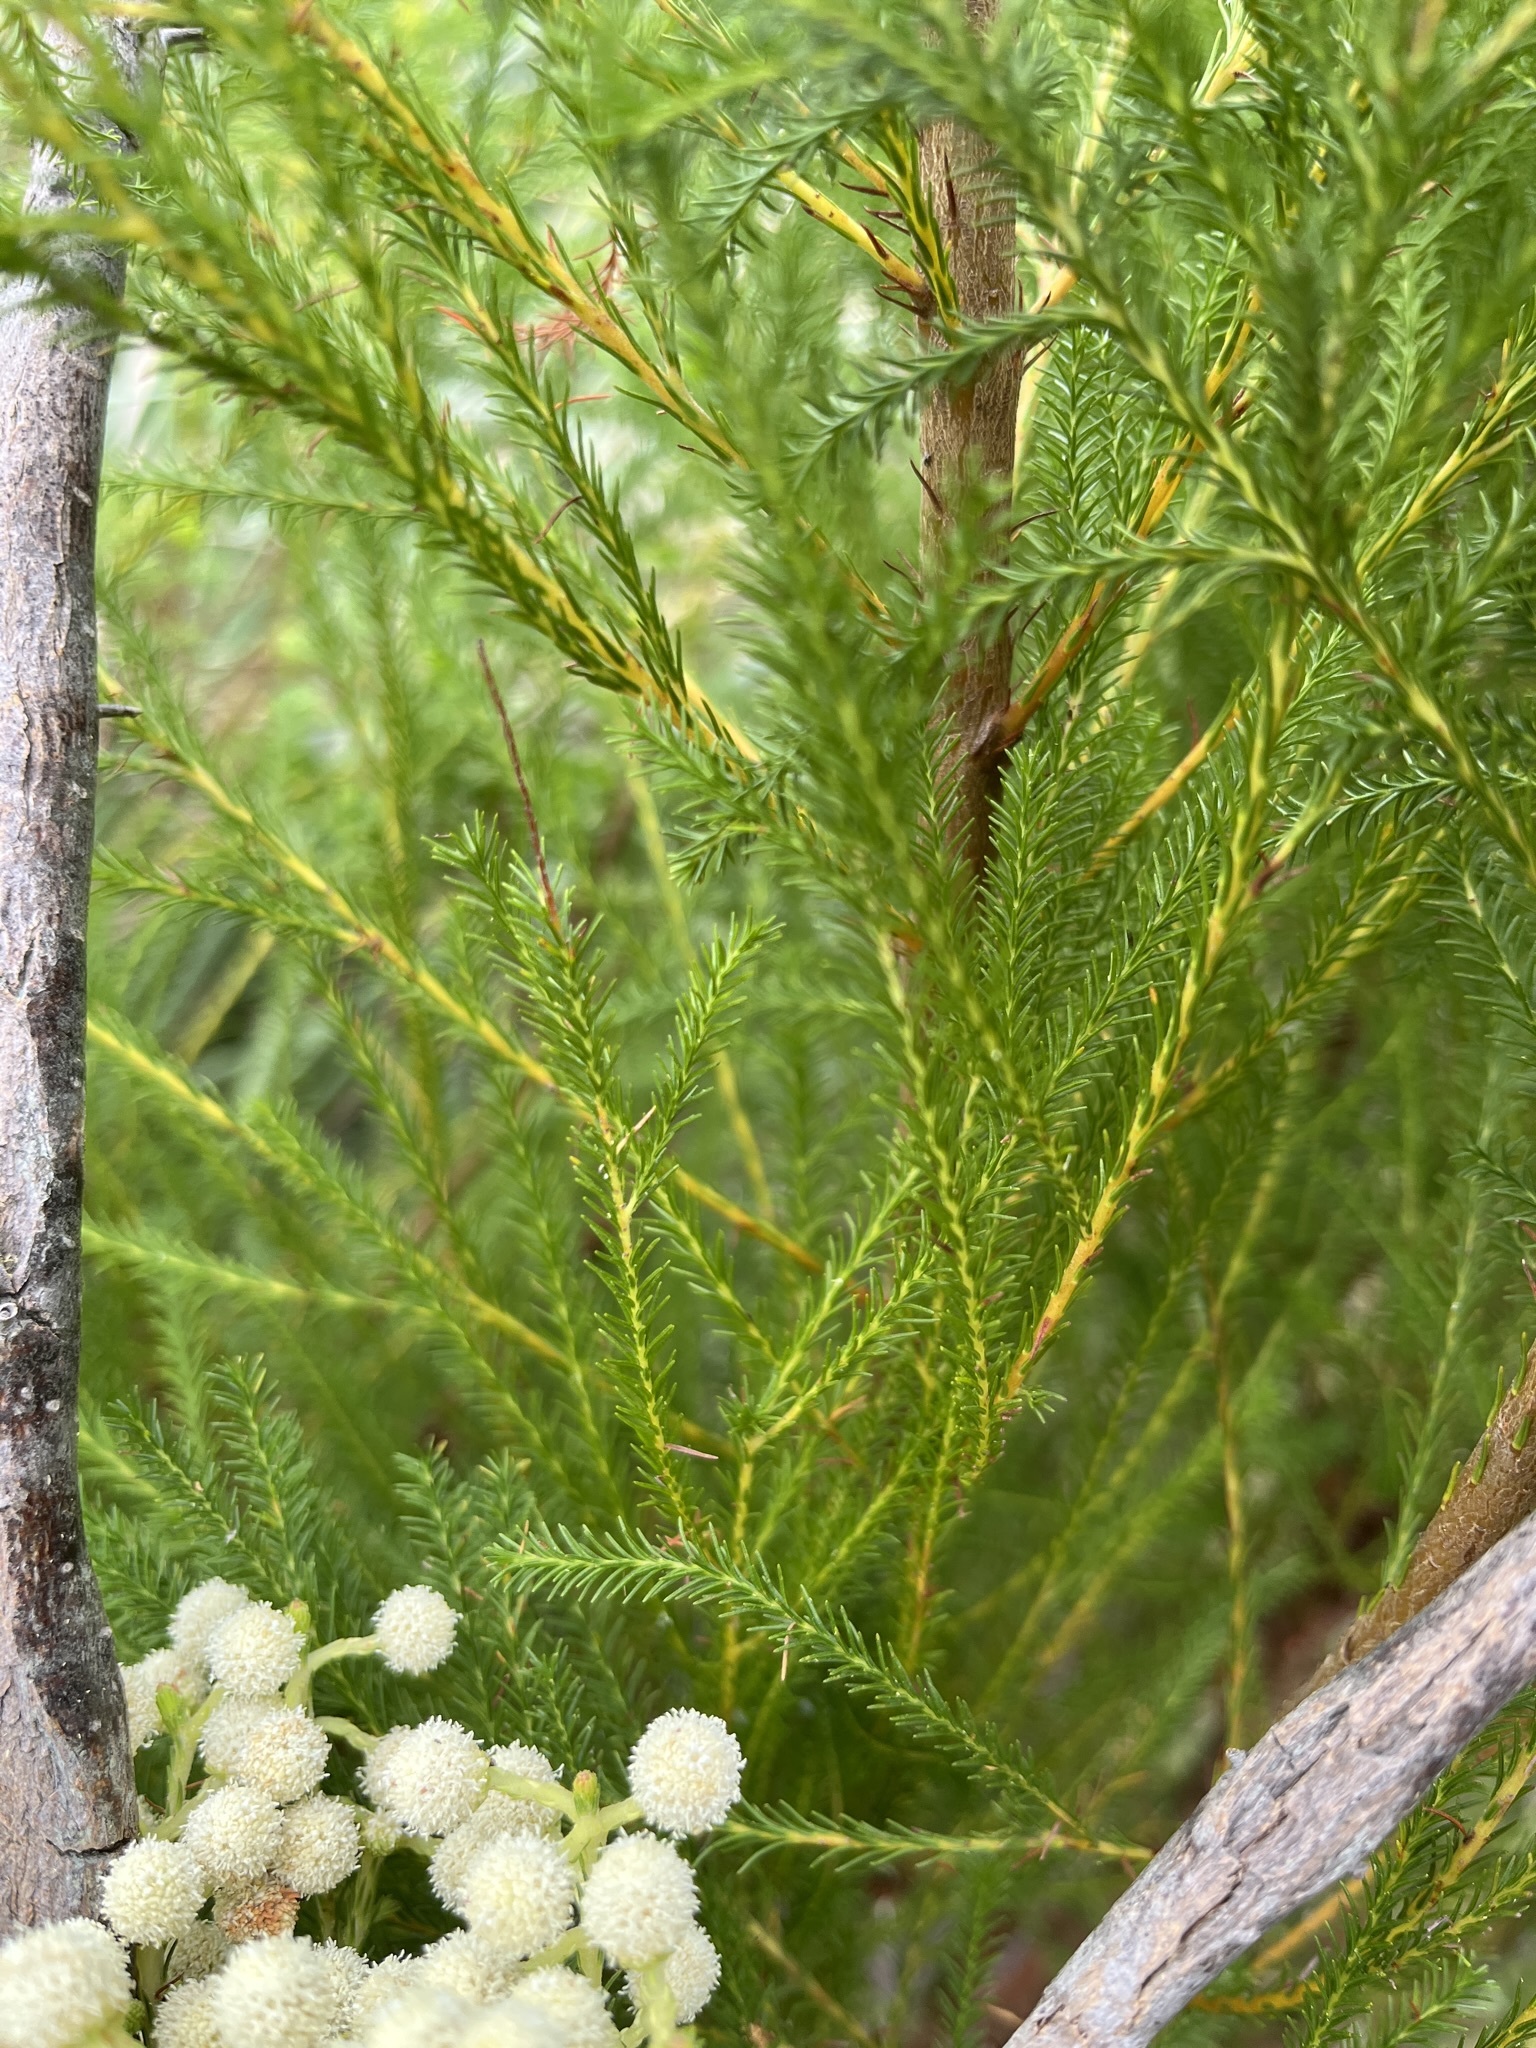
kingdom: Plantae
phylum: Tracheophyta
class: Magnoliopsida
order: Bruniales
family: Bruniaceae
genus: Berzelia
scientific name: Berzelia lanuginosa
